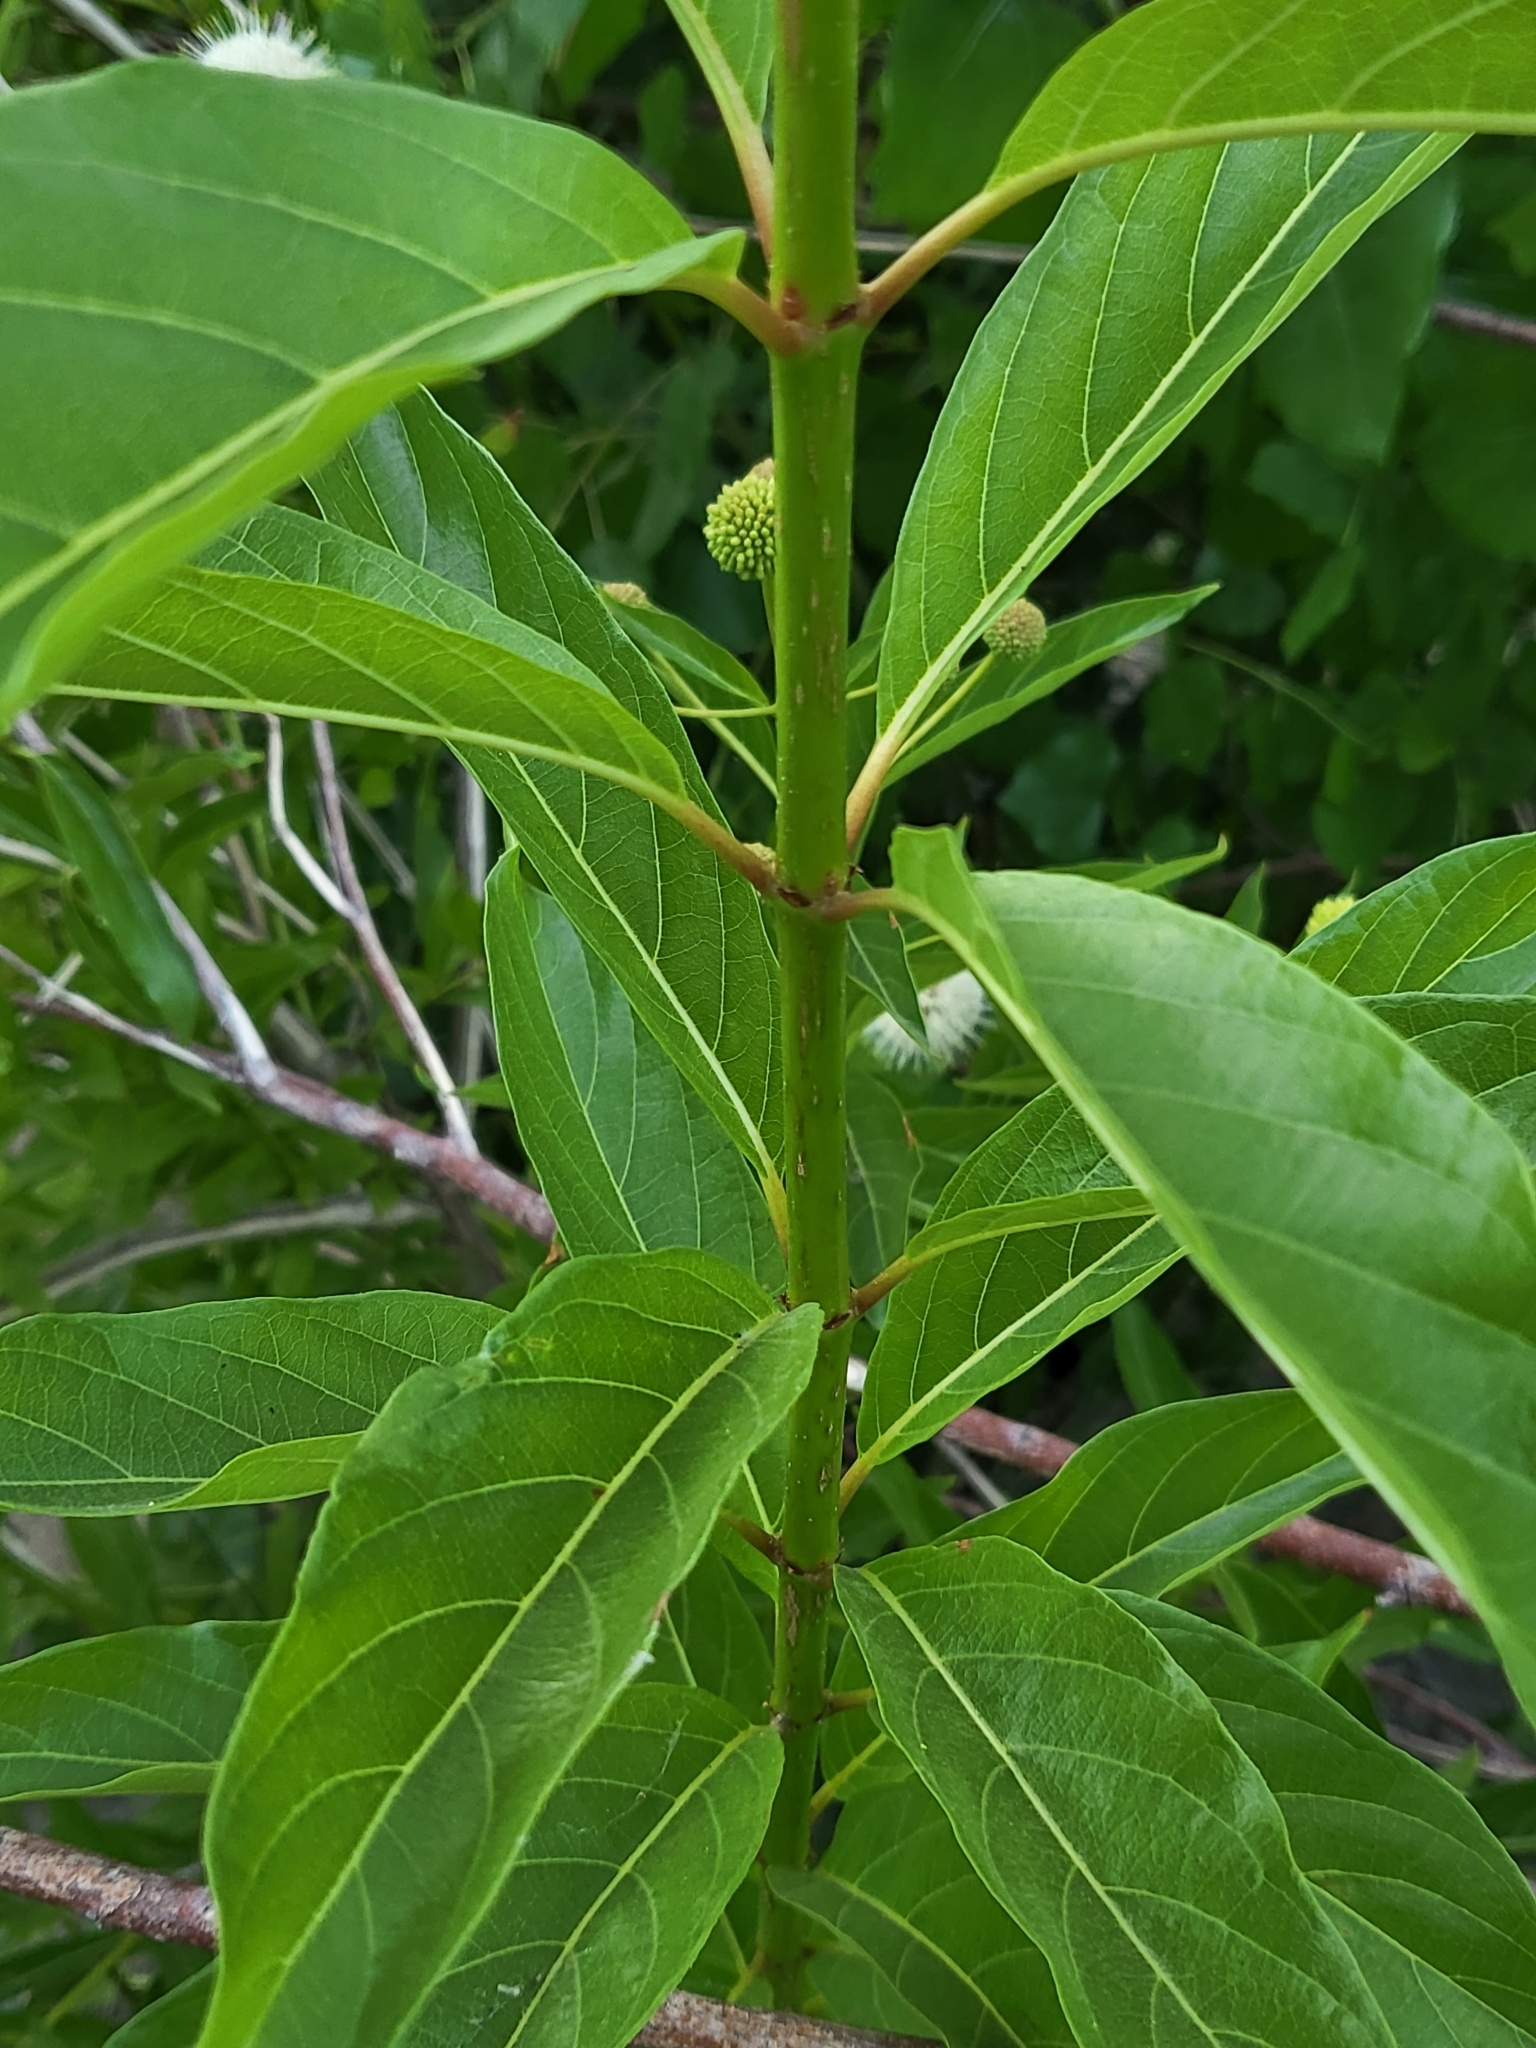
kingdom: Plantae
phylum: Tracheophyta
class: Magnoliopsida
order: Gentianales
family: Rubiaceae
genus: Cephalanthus
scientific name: Cephalanthus occidentalis
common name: Button-willow
